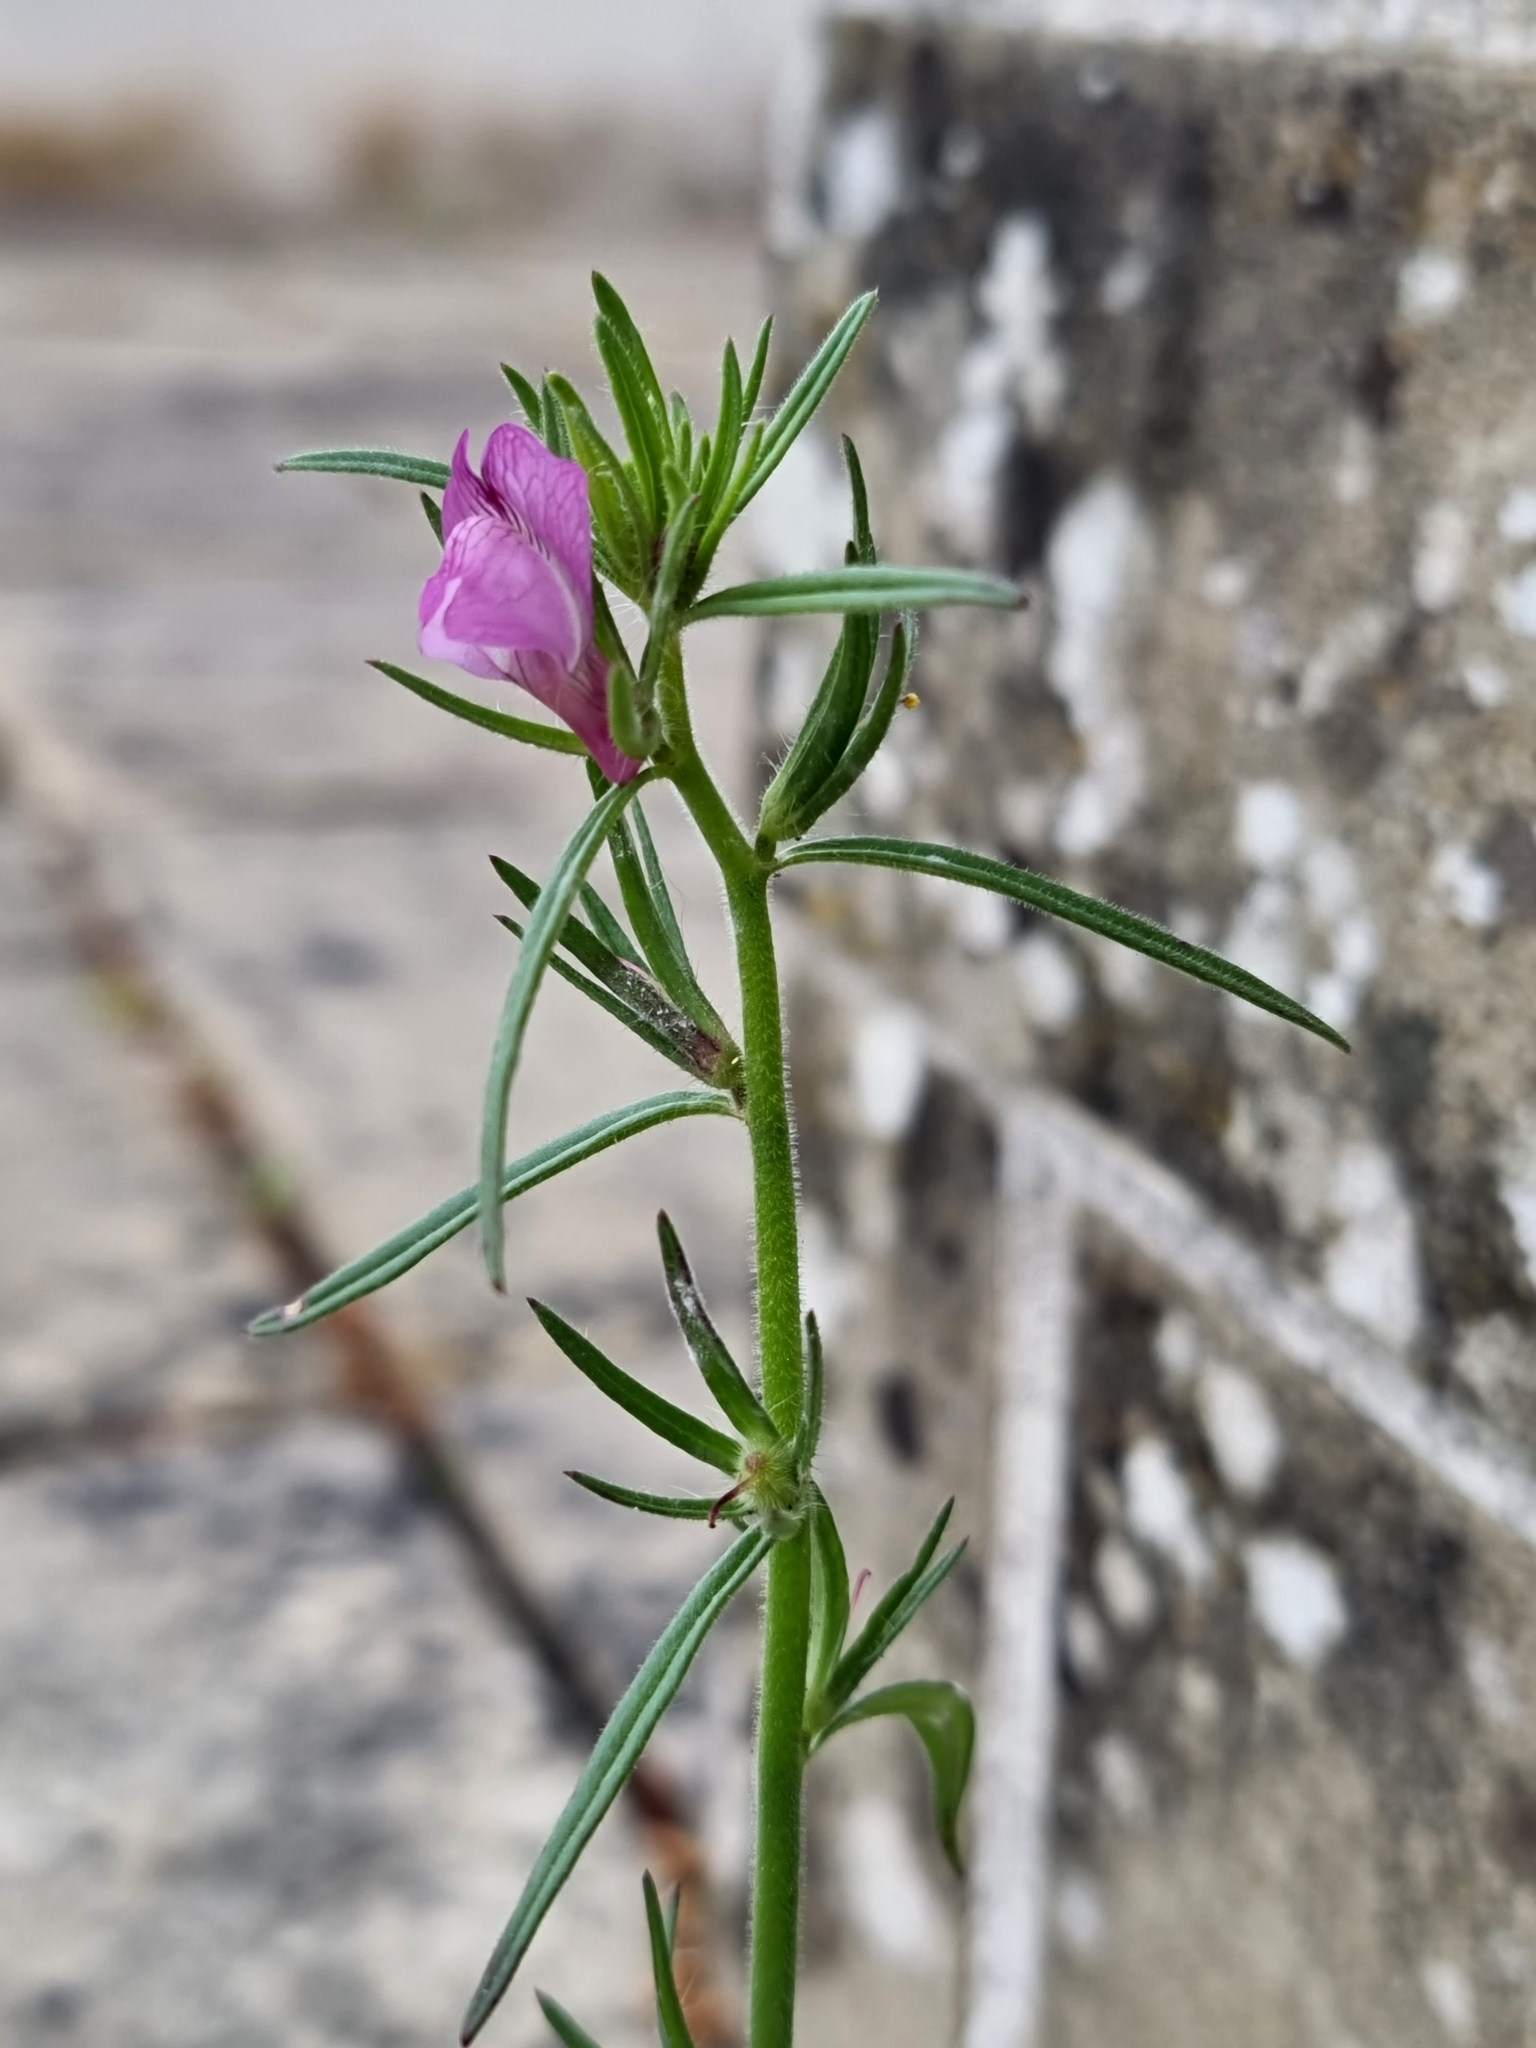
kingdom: Plantae
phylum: Tracheophyta
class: Magnoliopsida
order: Lamiales
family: Plantaginaceae
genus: Misopates
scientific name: Misopates orontium
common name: Weasel's-snout
